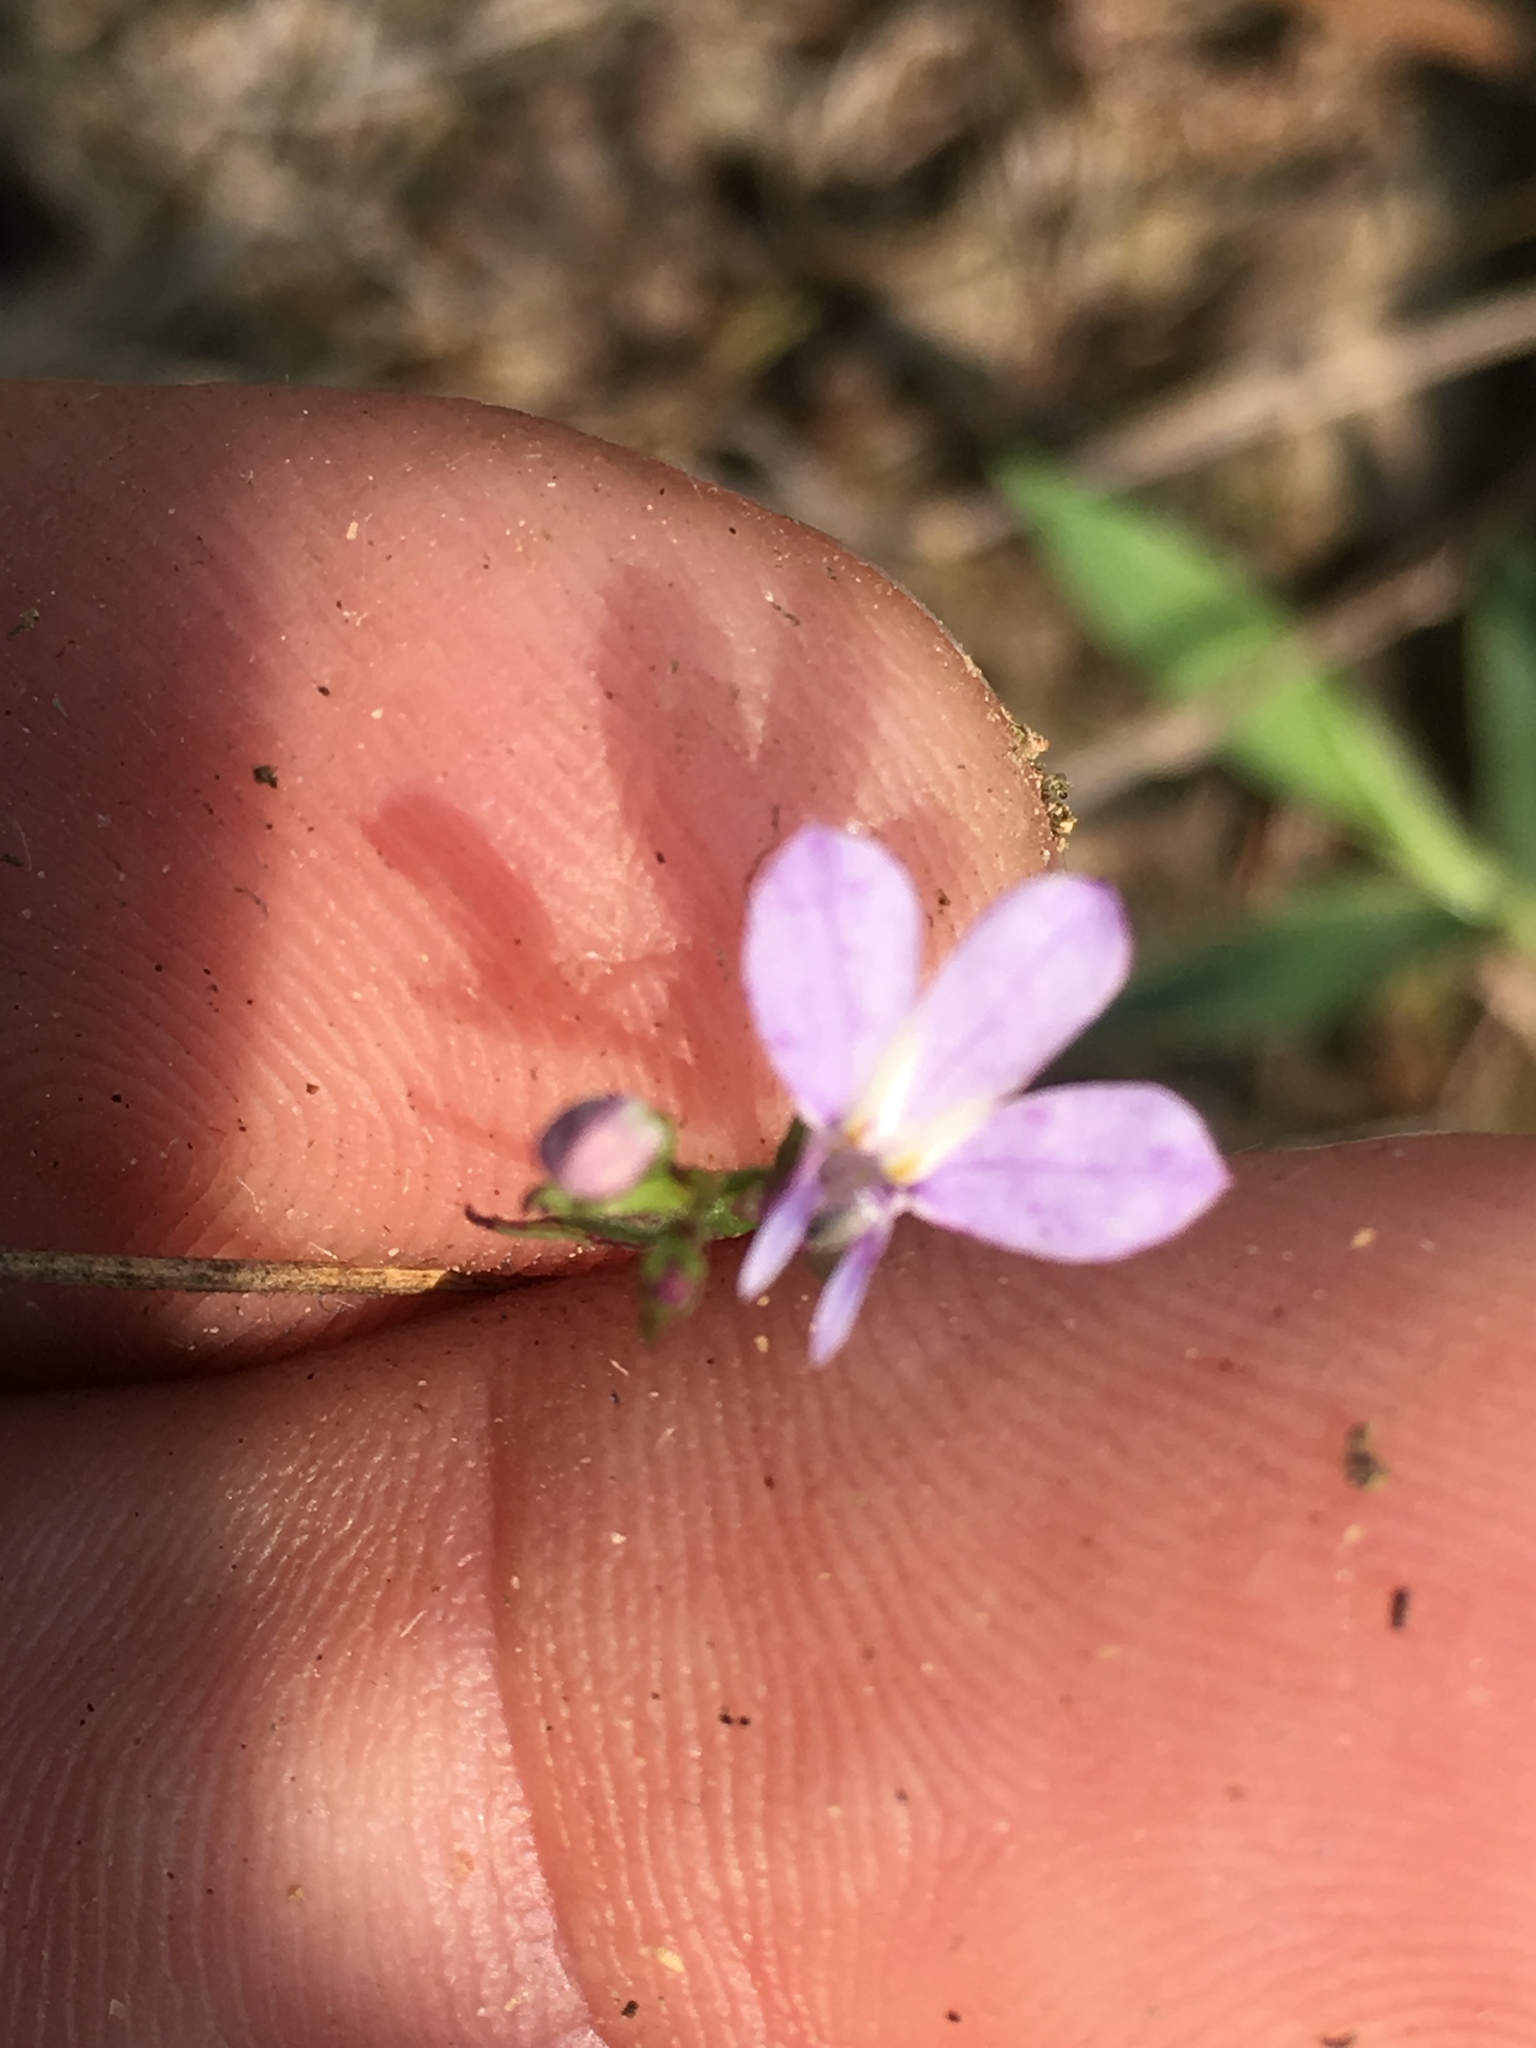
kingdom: Plantae
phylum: Tracheophyta
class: Magnoliopsida
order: Asterales
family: Campanulaceae
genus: Lobelia
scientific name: Lobelia nuttallii
